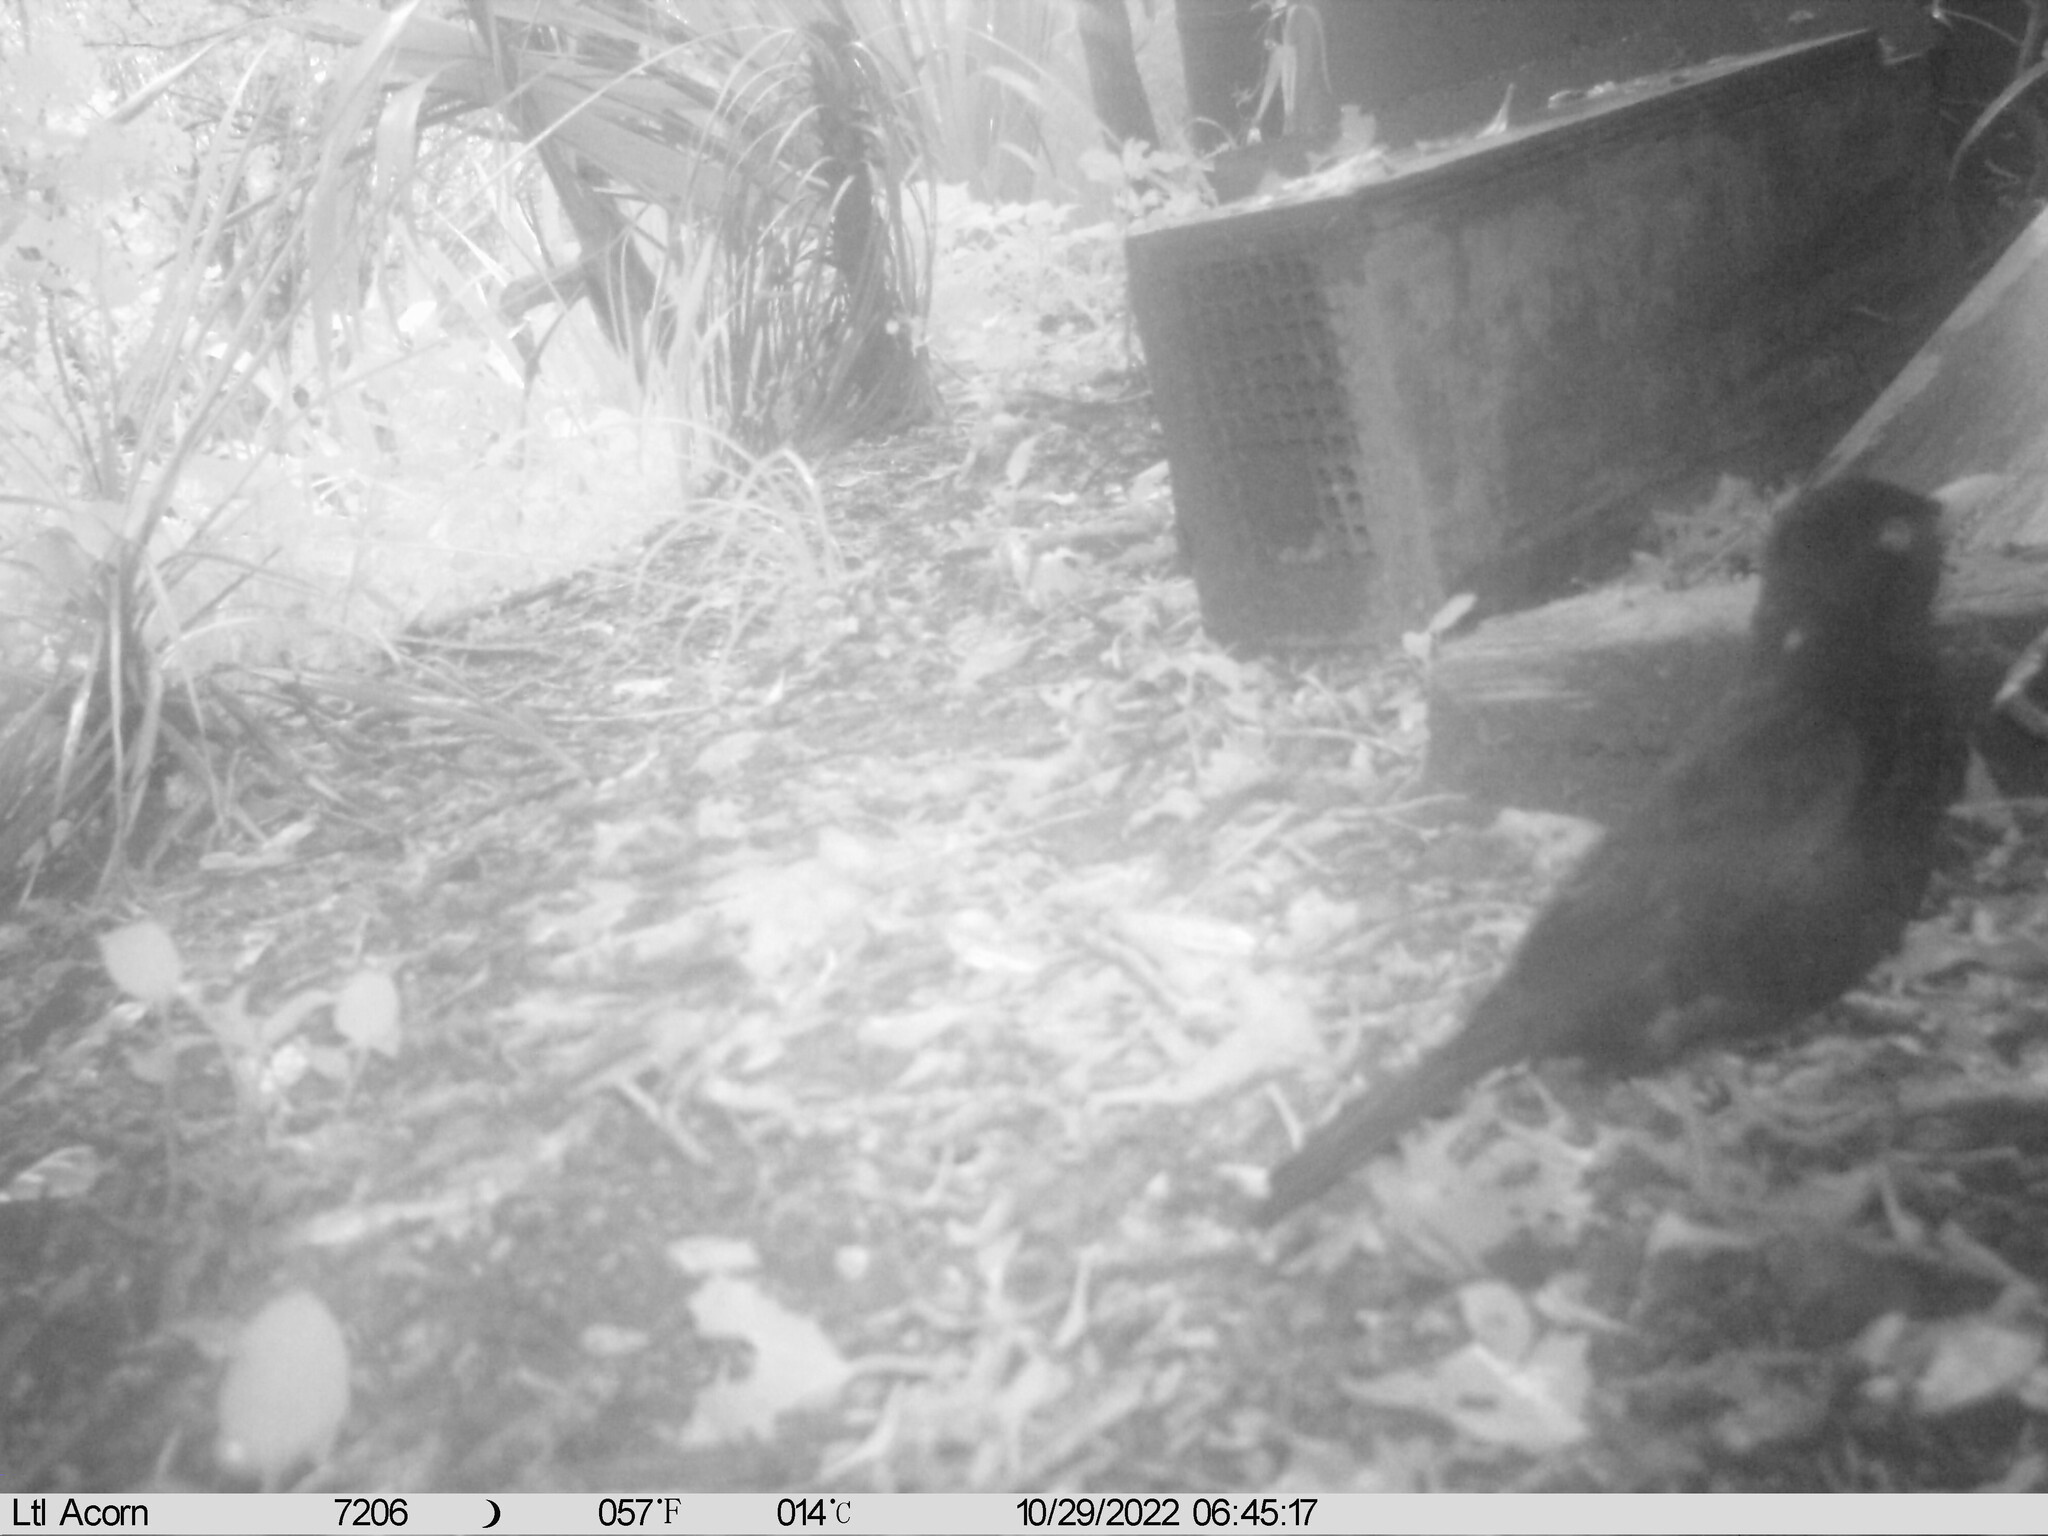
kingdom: Animalia
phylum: Chordata
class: Aves
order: Passeriformes
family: Turdidae
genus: Turdus
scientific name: Turdus merula
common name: Common blackbird
